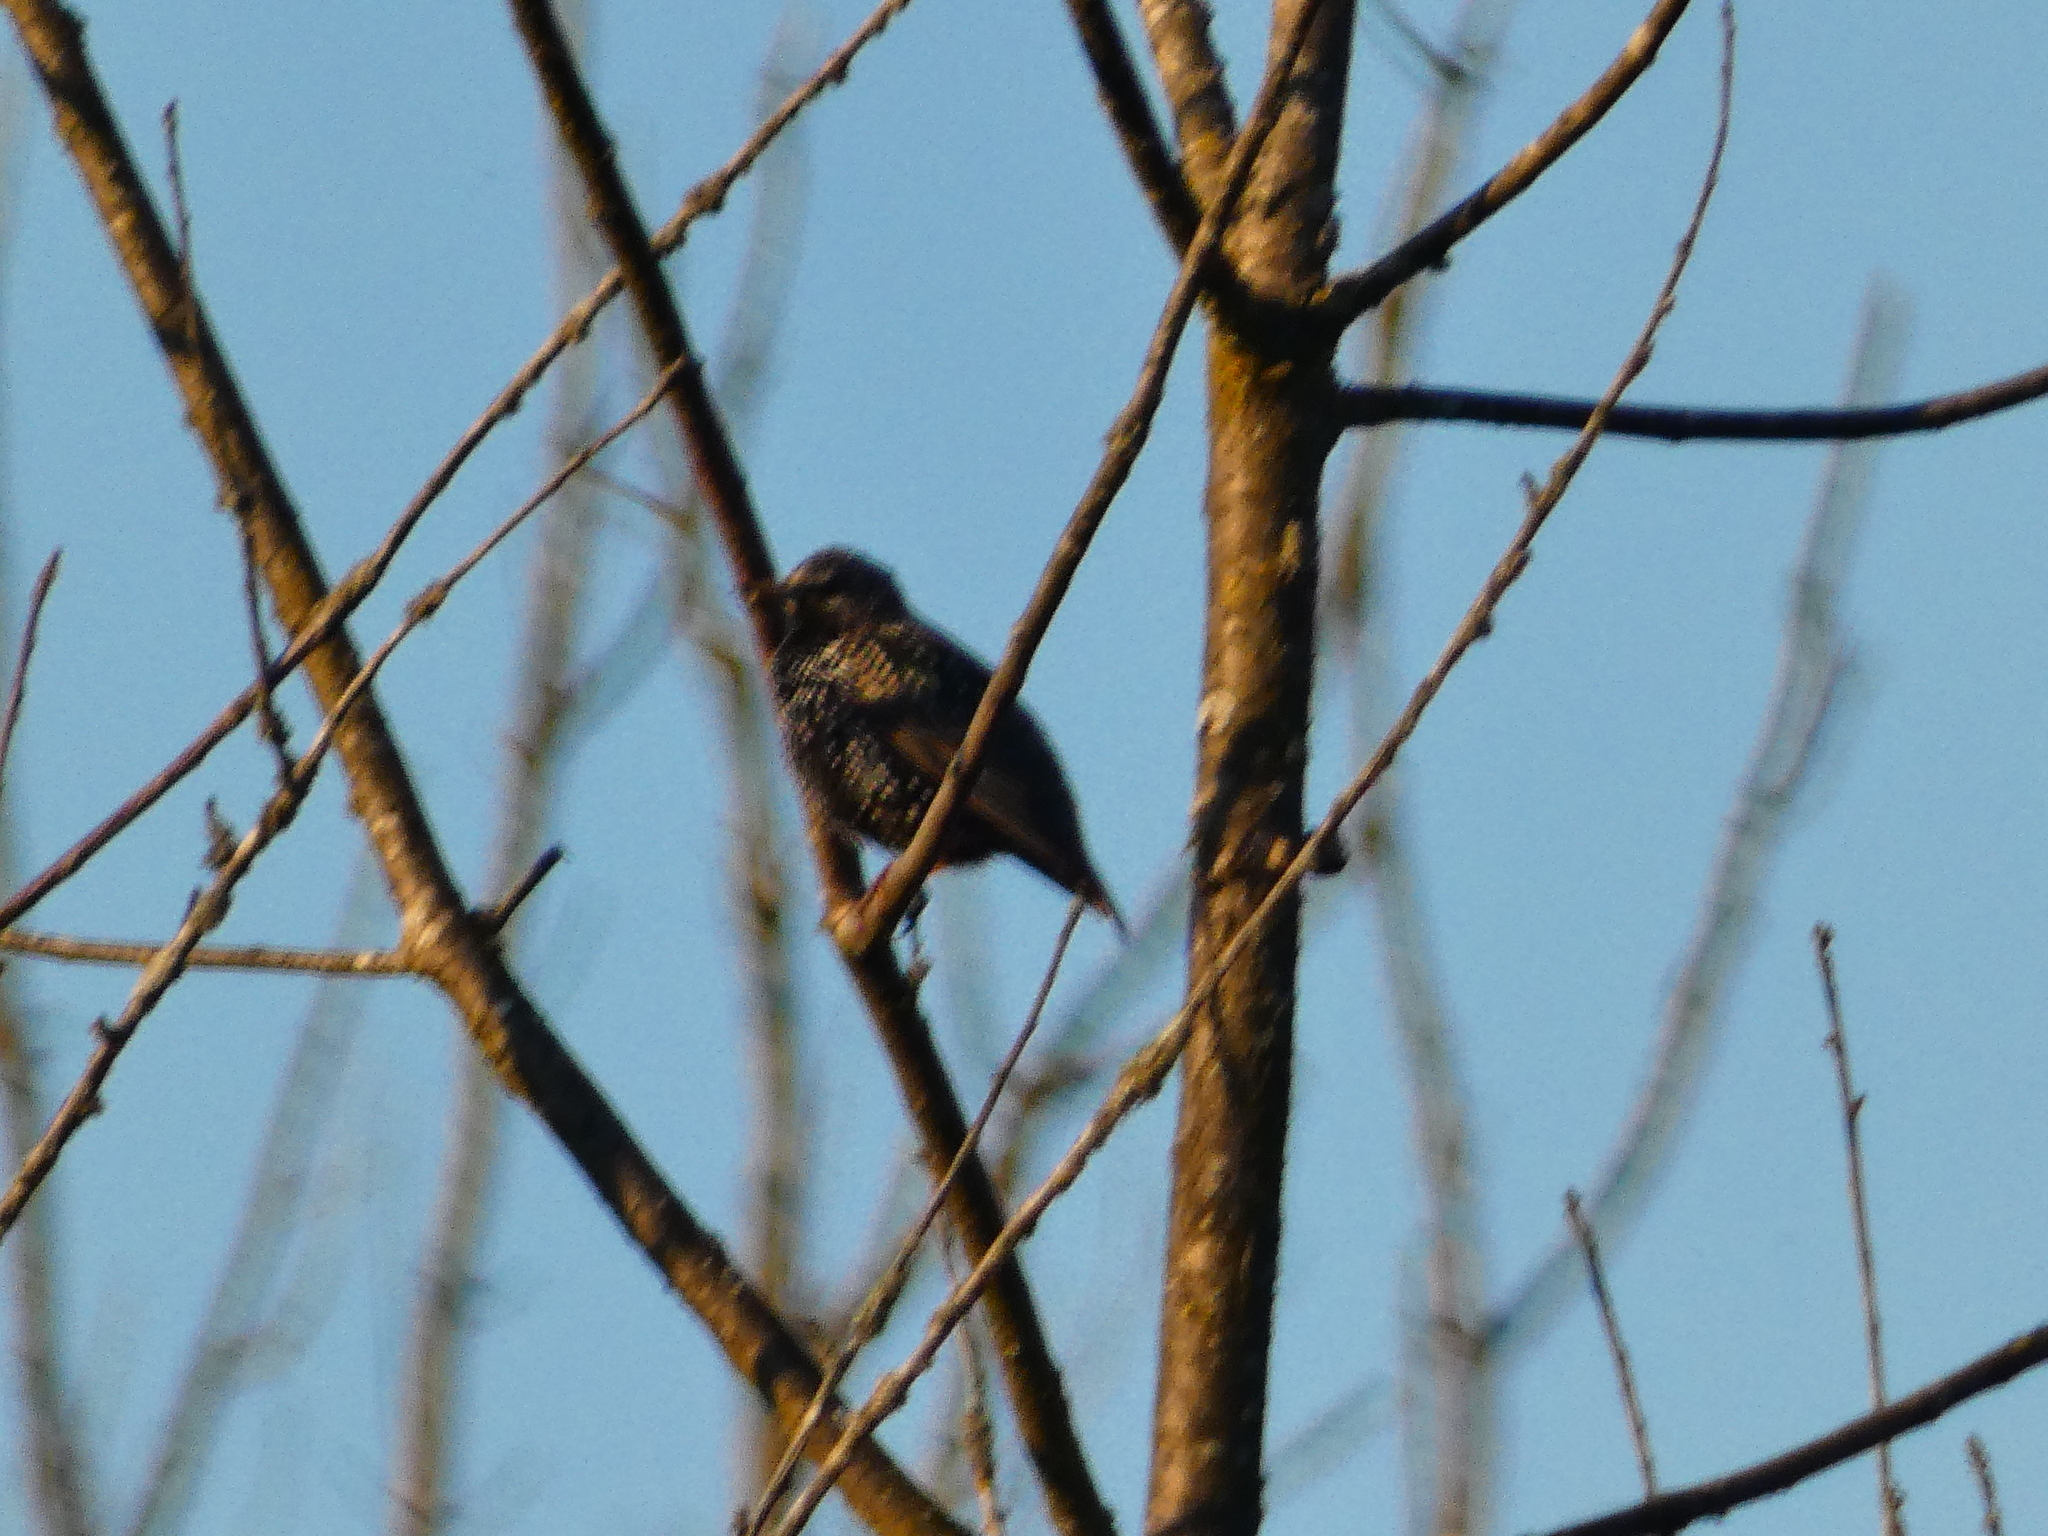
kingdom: Animalia
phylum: Chordata
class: Aves
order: Passeriformes
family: Sturnidae
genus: Sturnus
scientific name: Sturnus vulgaris
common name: Common starling
